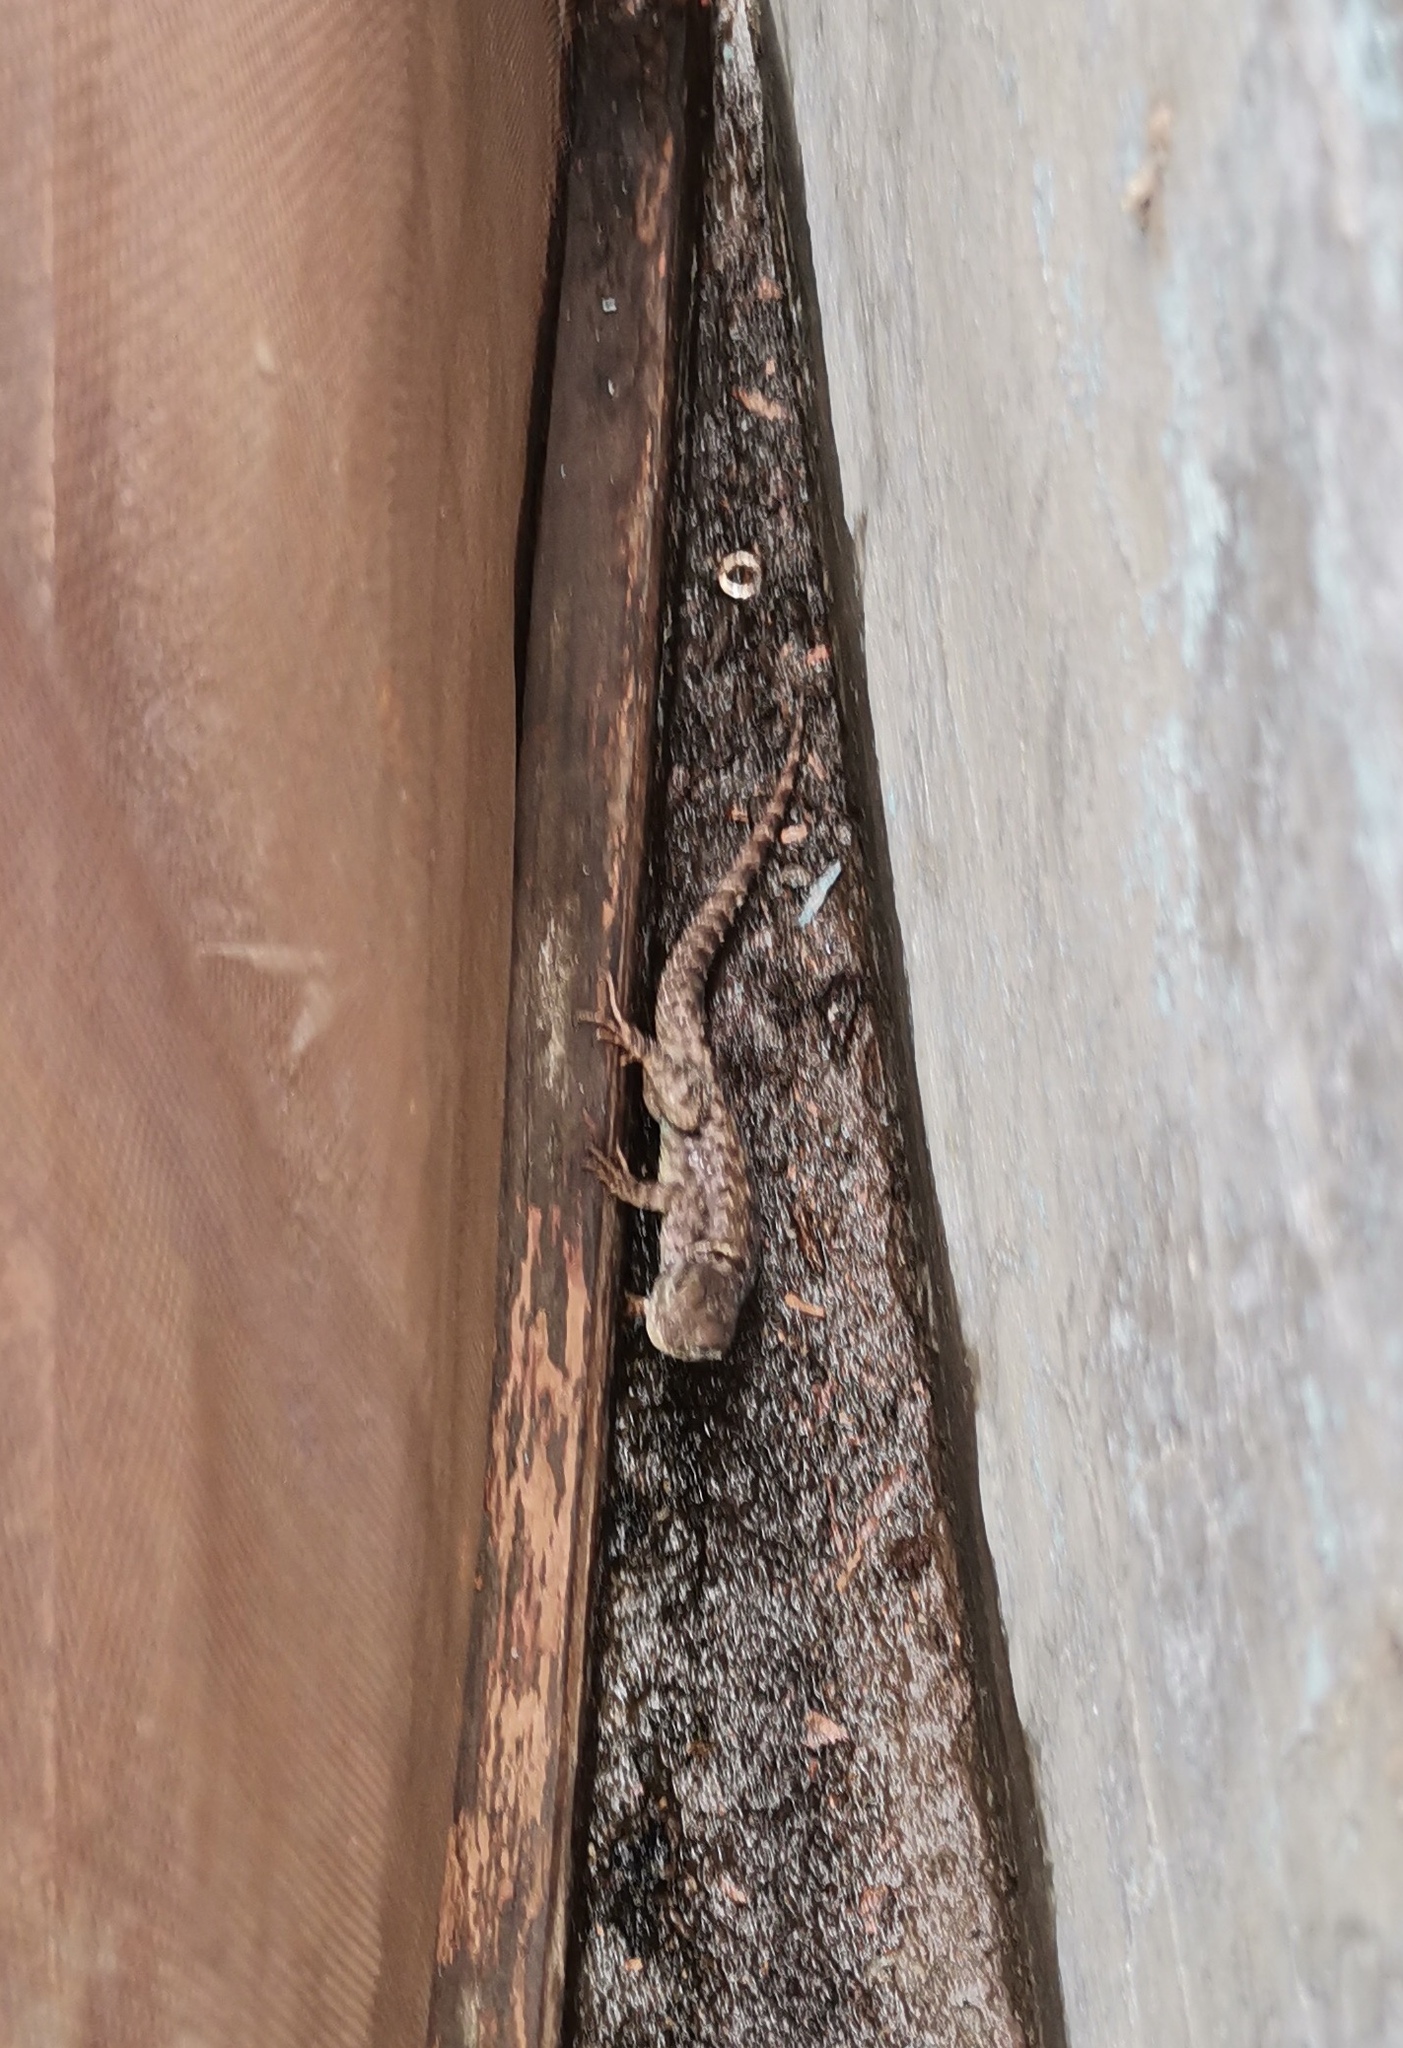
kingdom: Animalia
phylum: Chordata
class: Squamata
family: Phrynosomatidae
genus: Sceloporus
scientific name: Sceloporus dugesii
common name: Duges' spiny lizard
